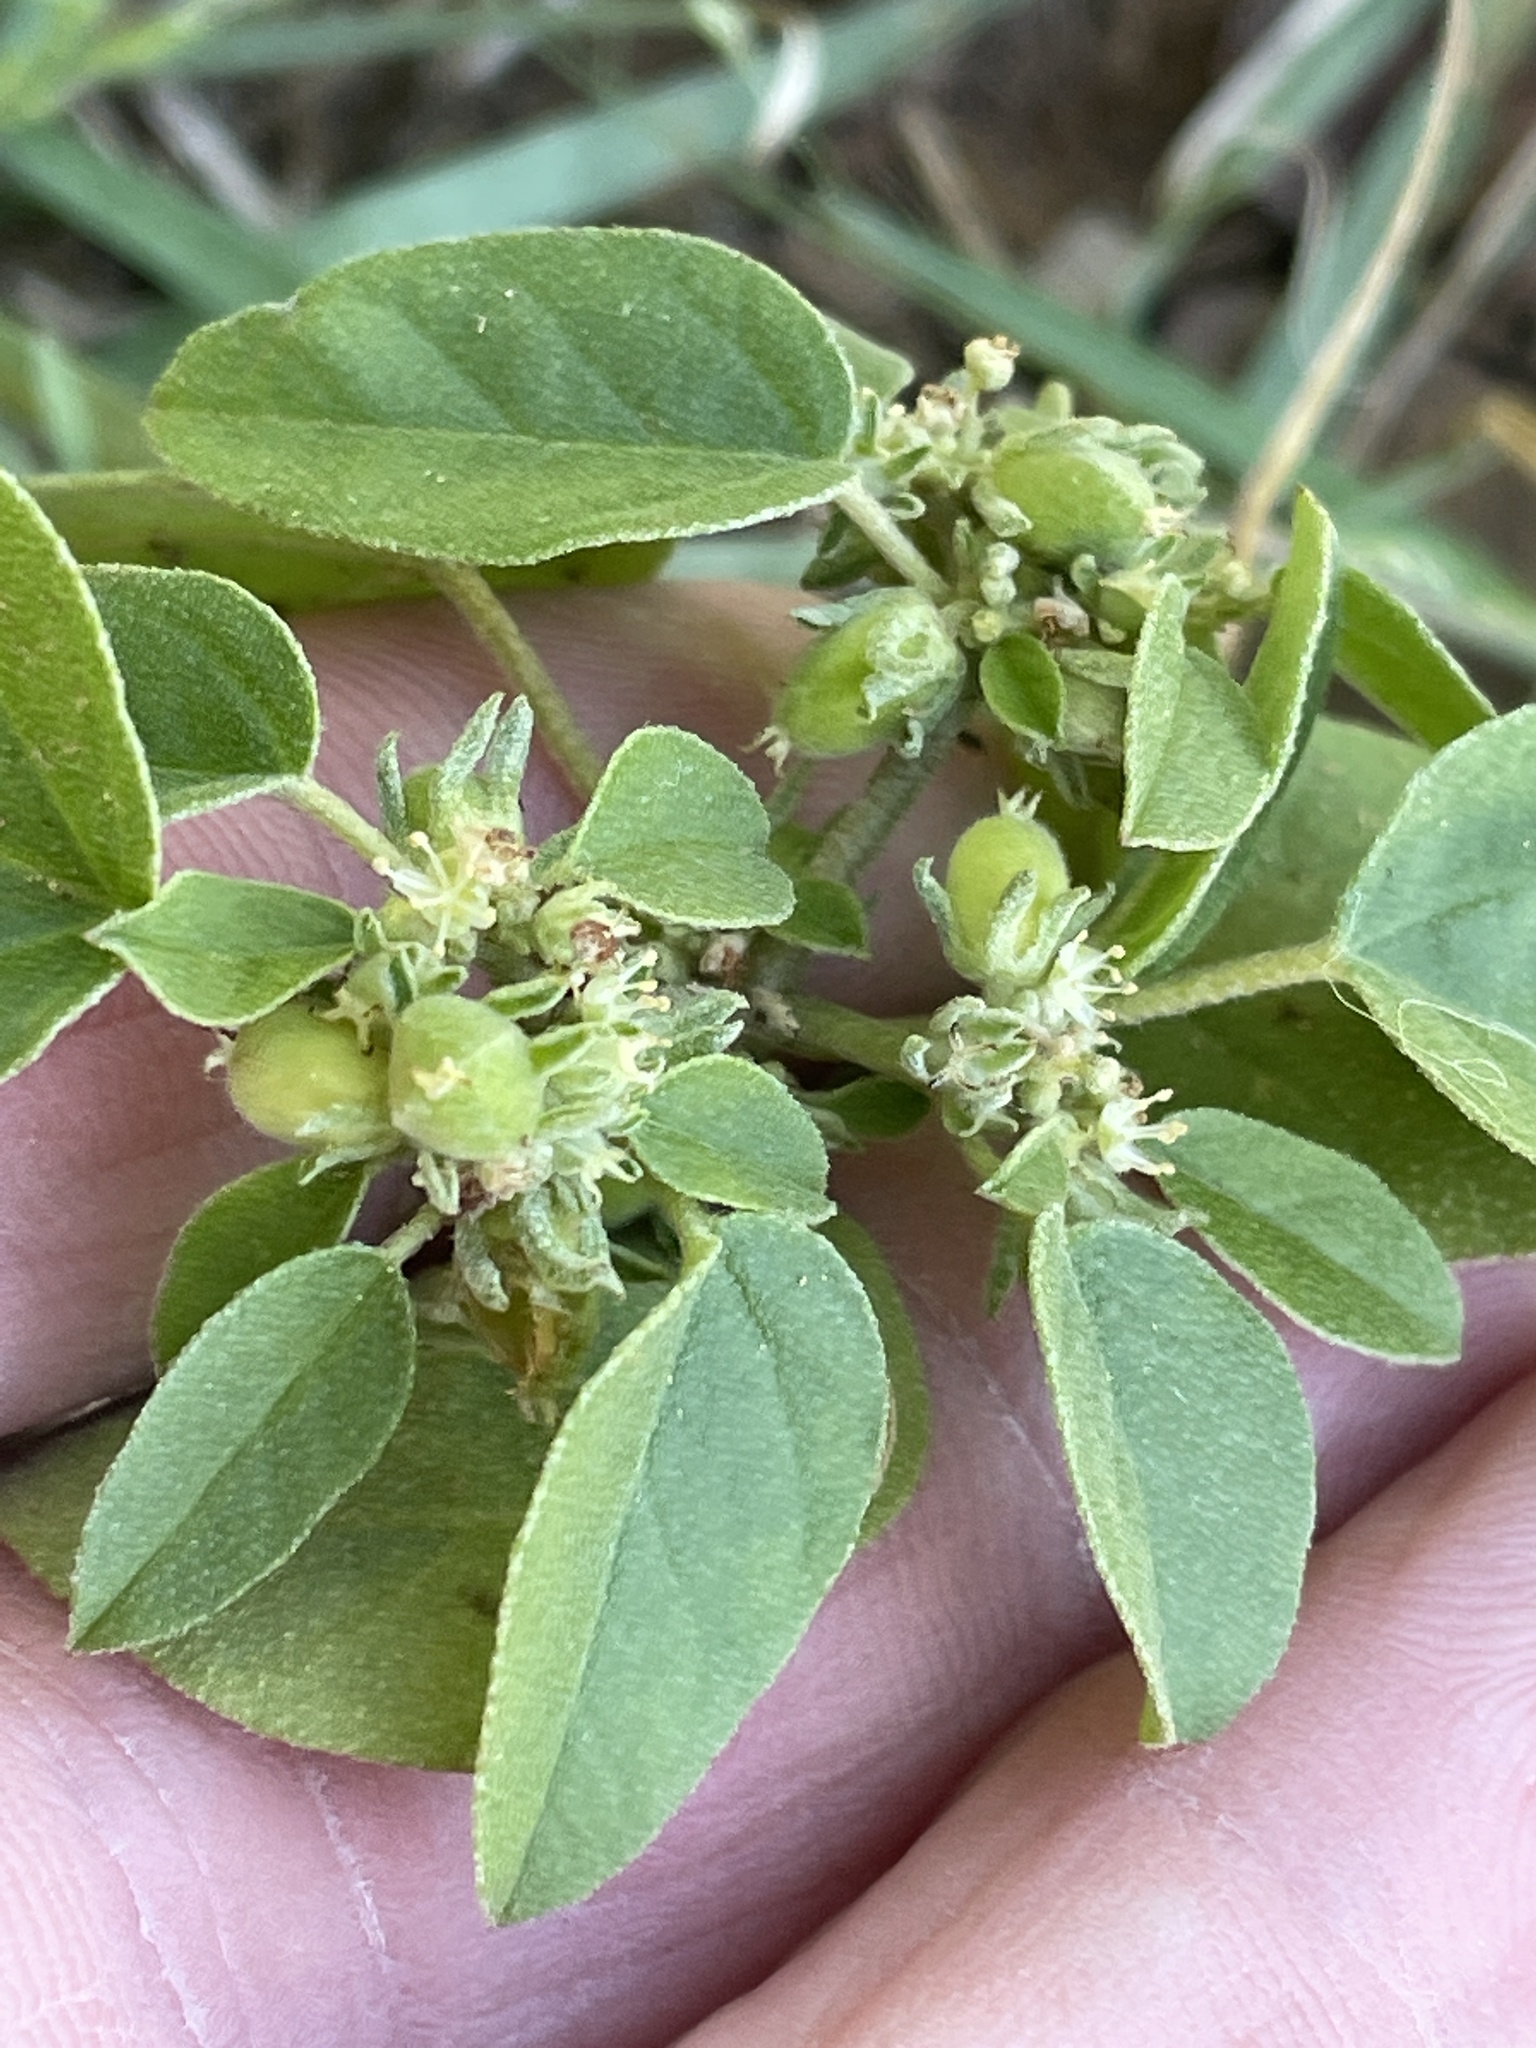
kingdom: Plantae
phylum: Tracheophyta
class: Magnoliopsida
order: Malpighiales
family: Euphorbiaceae
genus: Croton
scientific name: Croton monanthogynus
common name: One-seed croton
